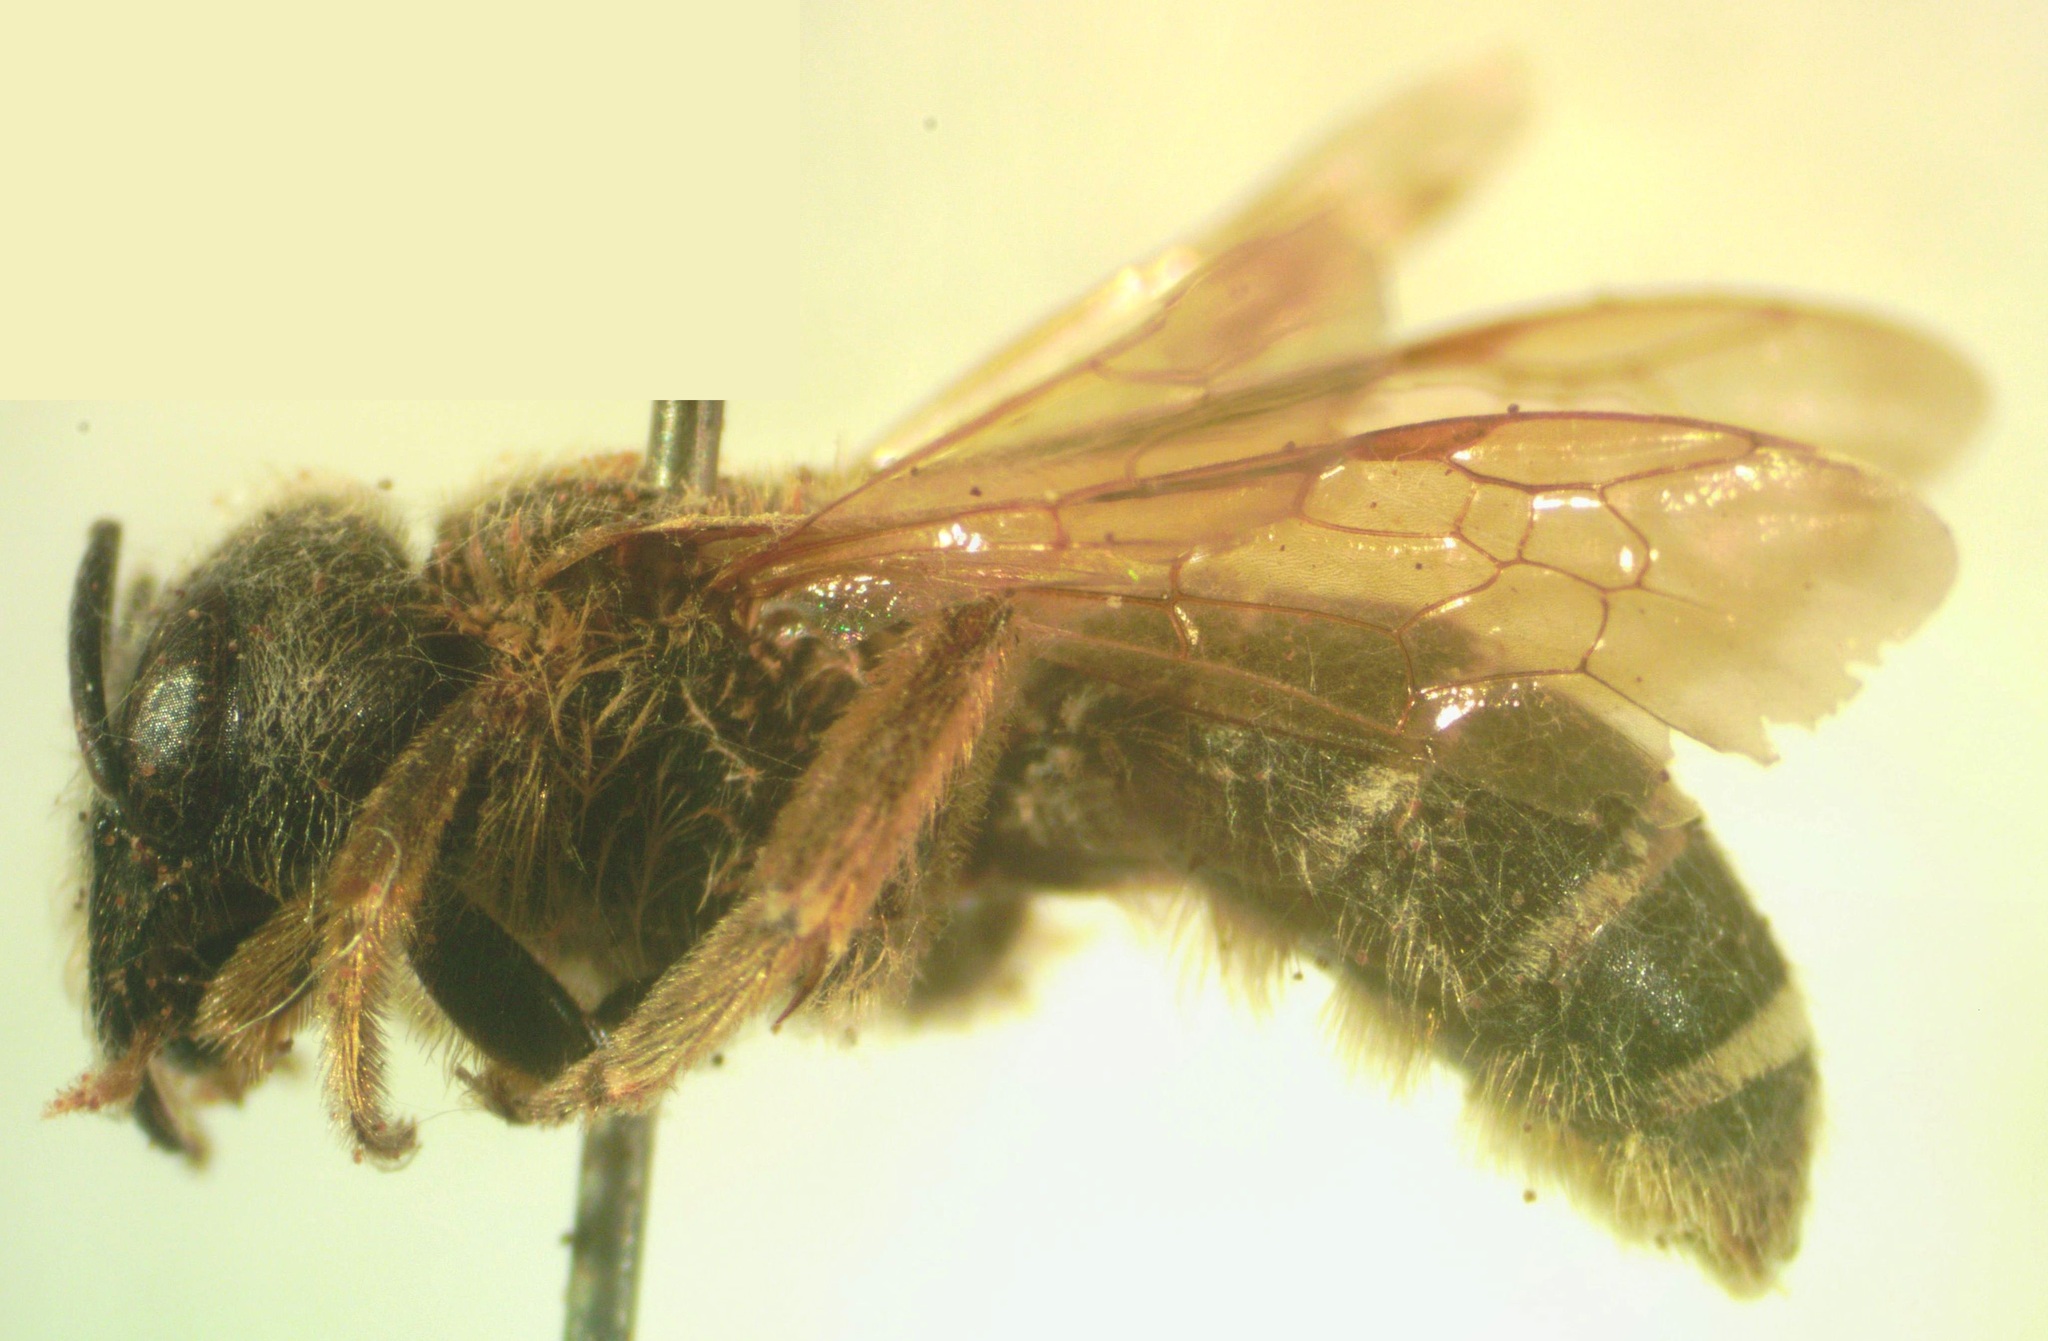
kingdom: Animalia
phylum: Arthropoda
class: Insecta
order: Hymenoptera
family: Halictidae
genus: Halictus
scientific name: Halictus ligatus
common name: Ligated furrow bee
